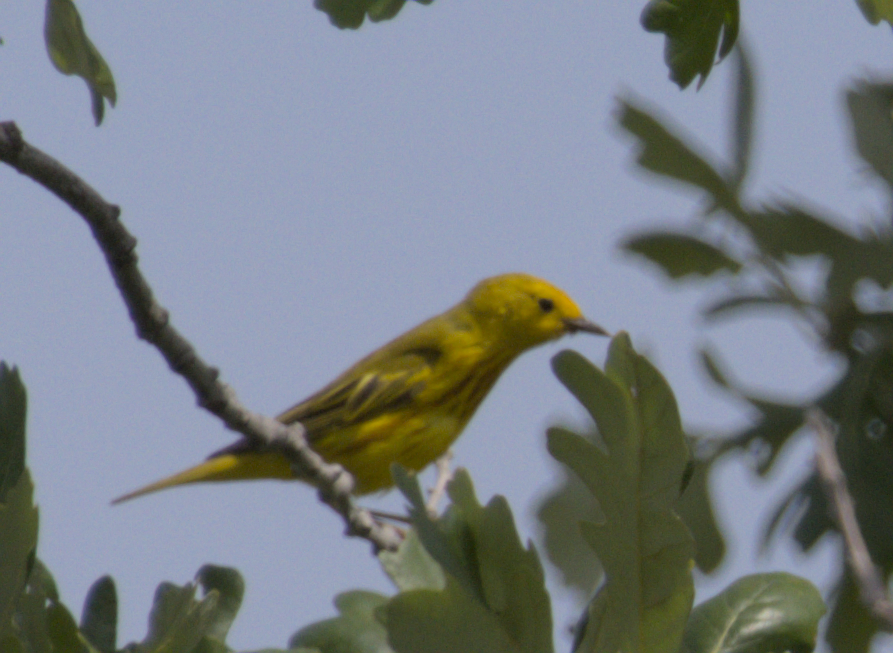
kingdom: Animalia
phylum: Chordata
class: Aves
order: Passeriformes
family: Parulidae
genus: Setophaga
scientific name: Setophaga petechia
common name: Yellow warbler
